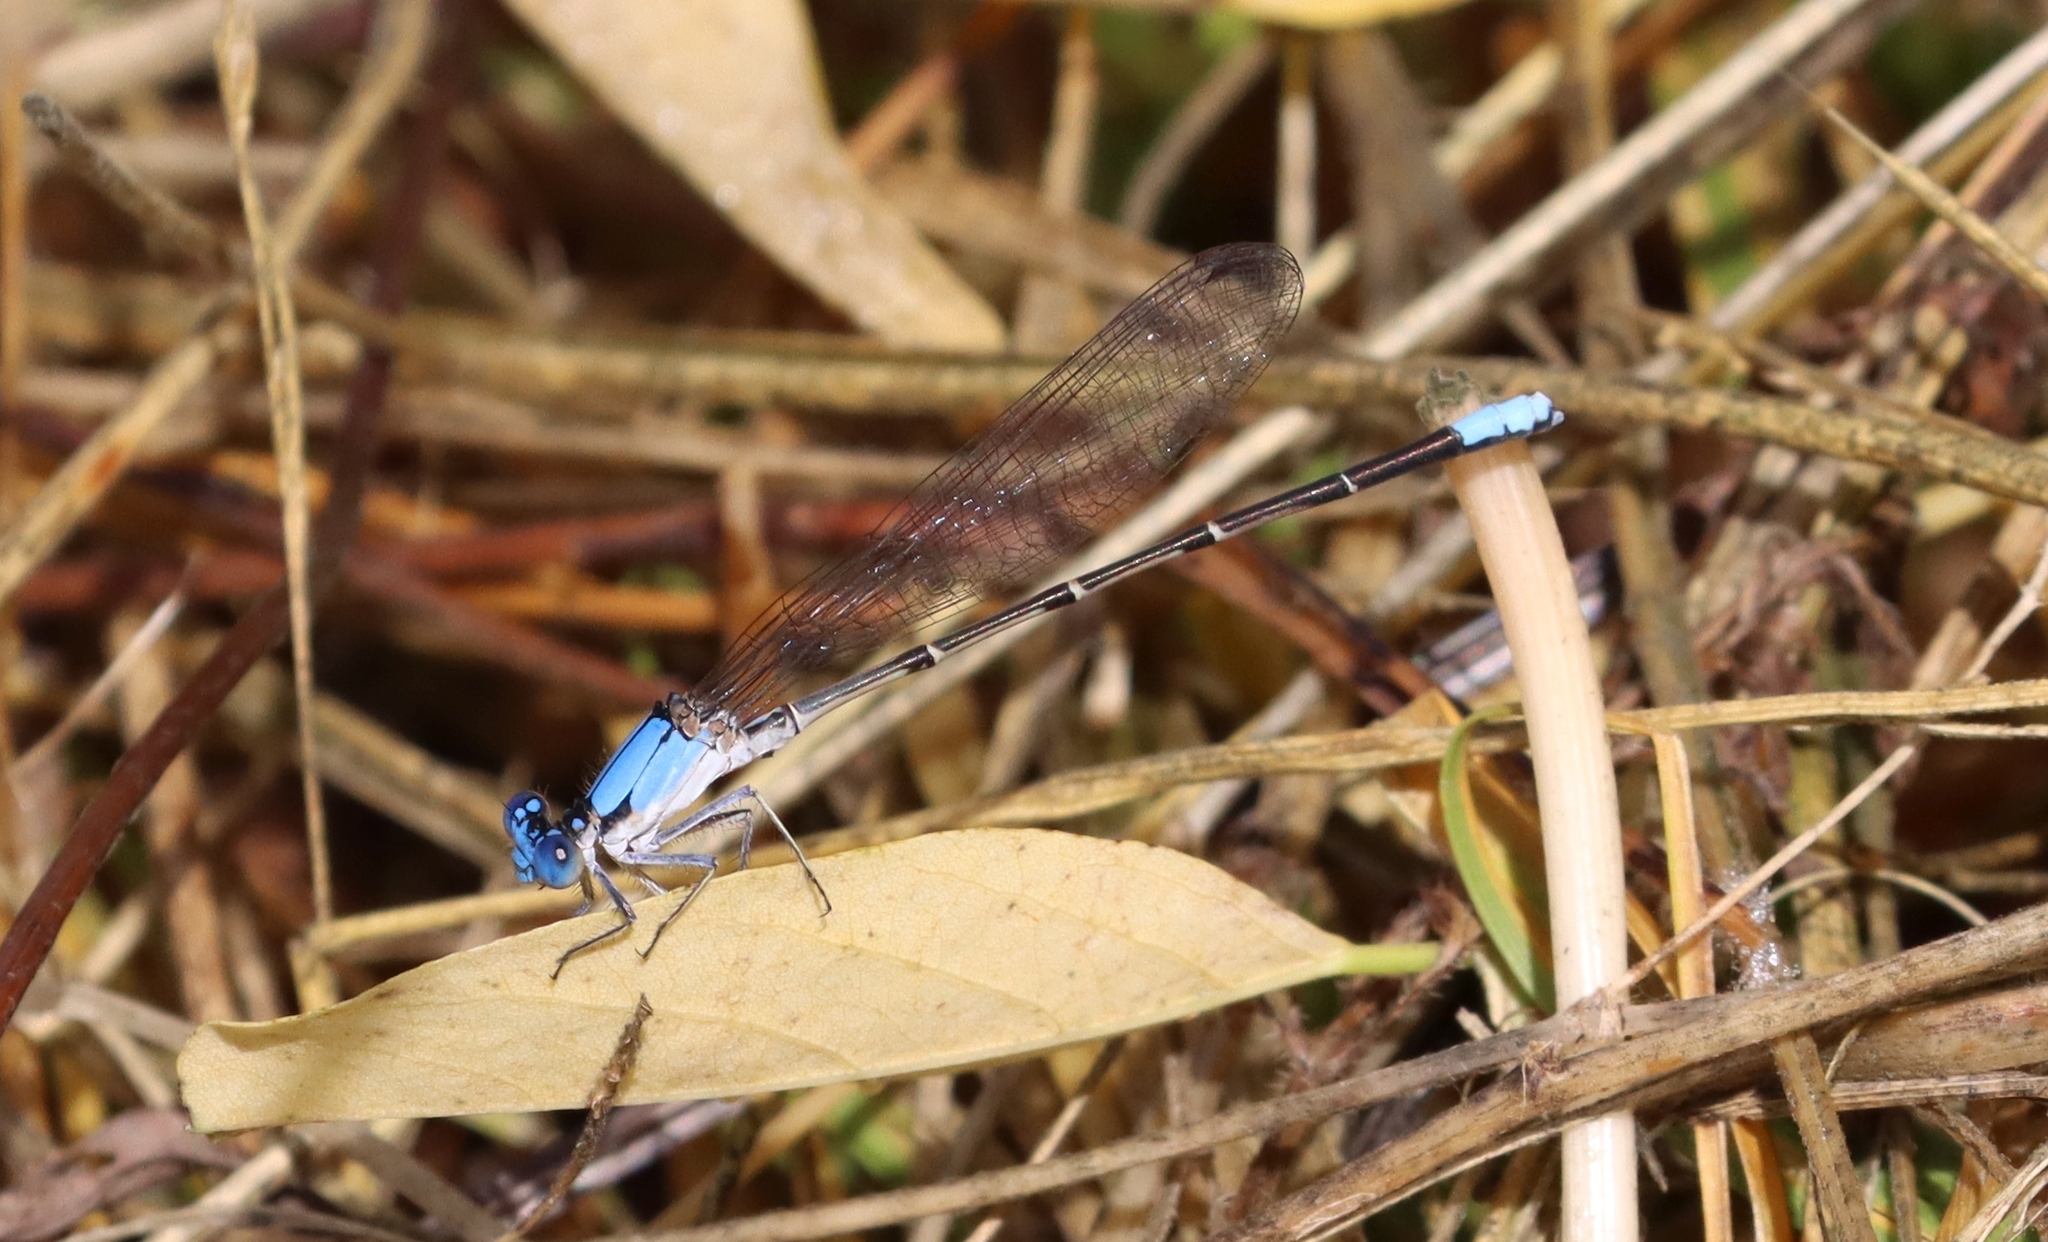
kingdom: Animalia
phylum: Arthropoda
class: Insecta
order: Odonata
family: Coenagrionidae
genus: Argia
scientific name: Argia apicalis
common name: Blue-fronted dancer
